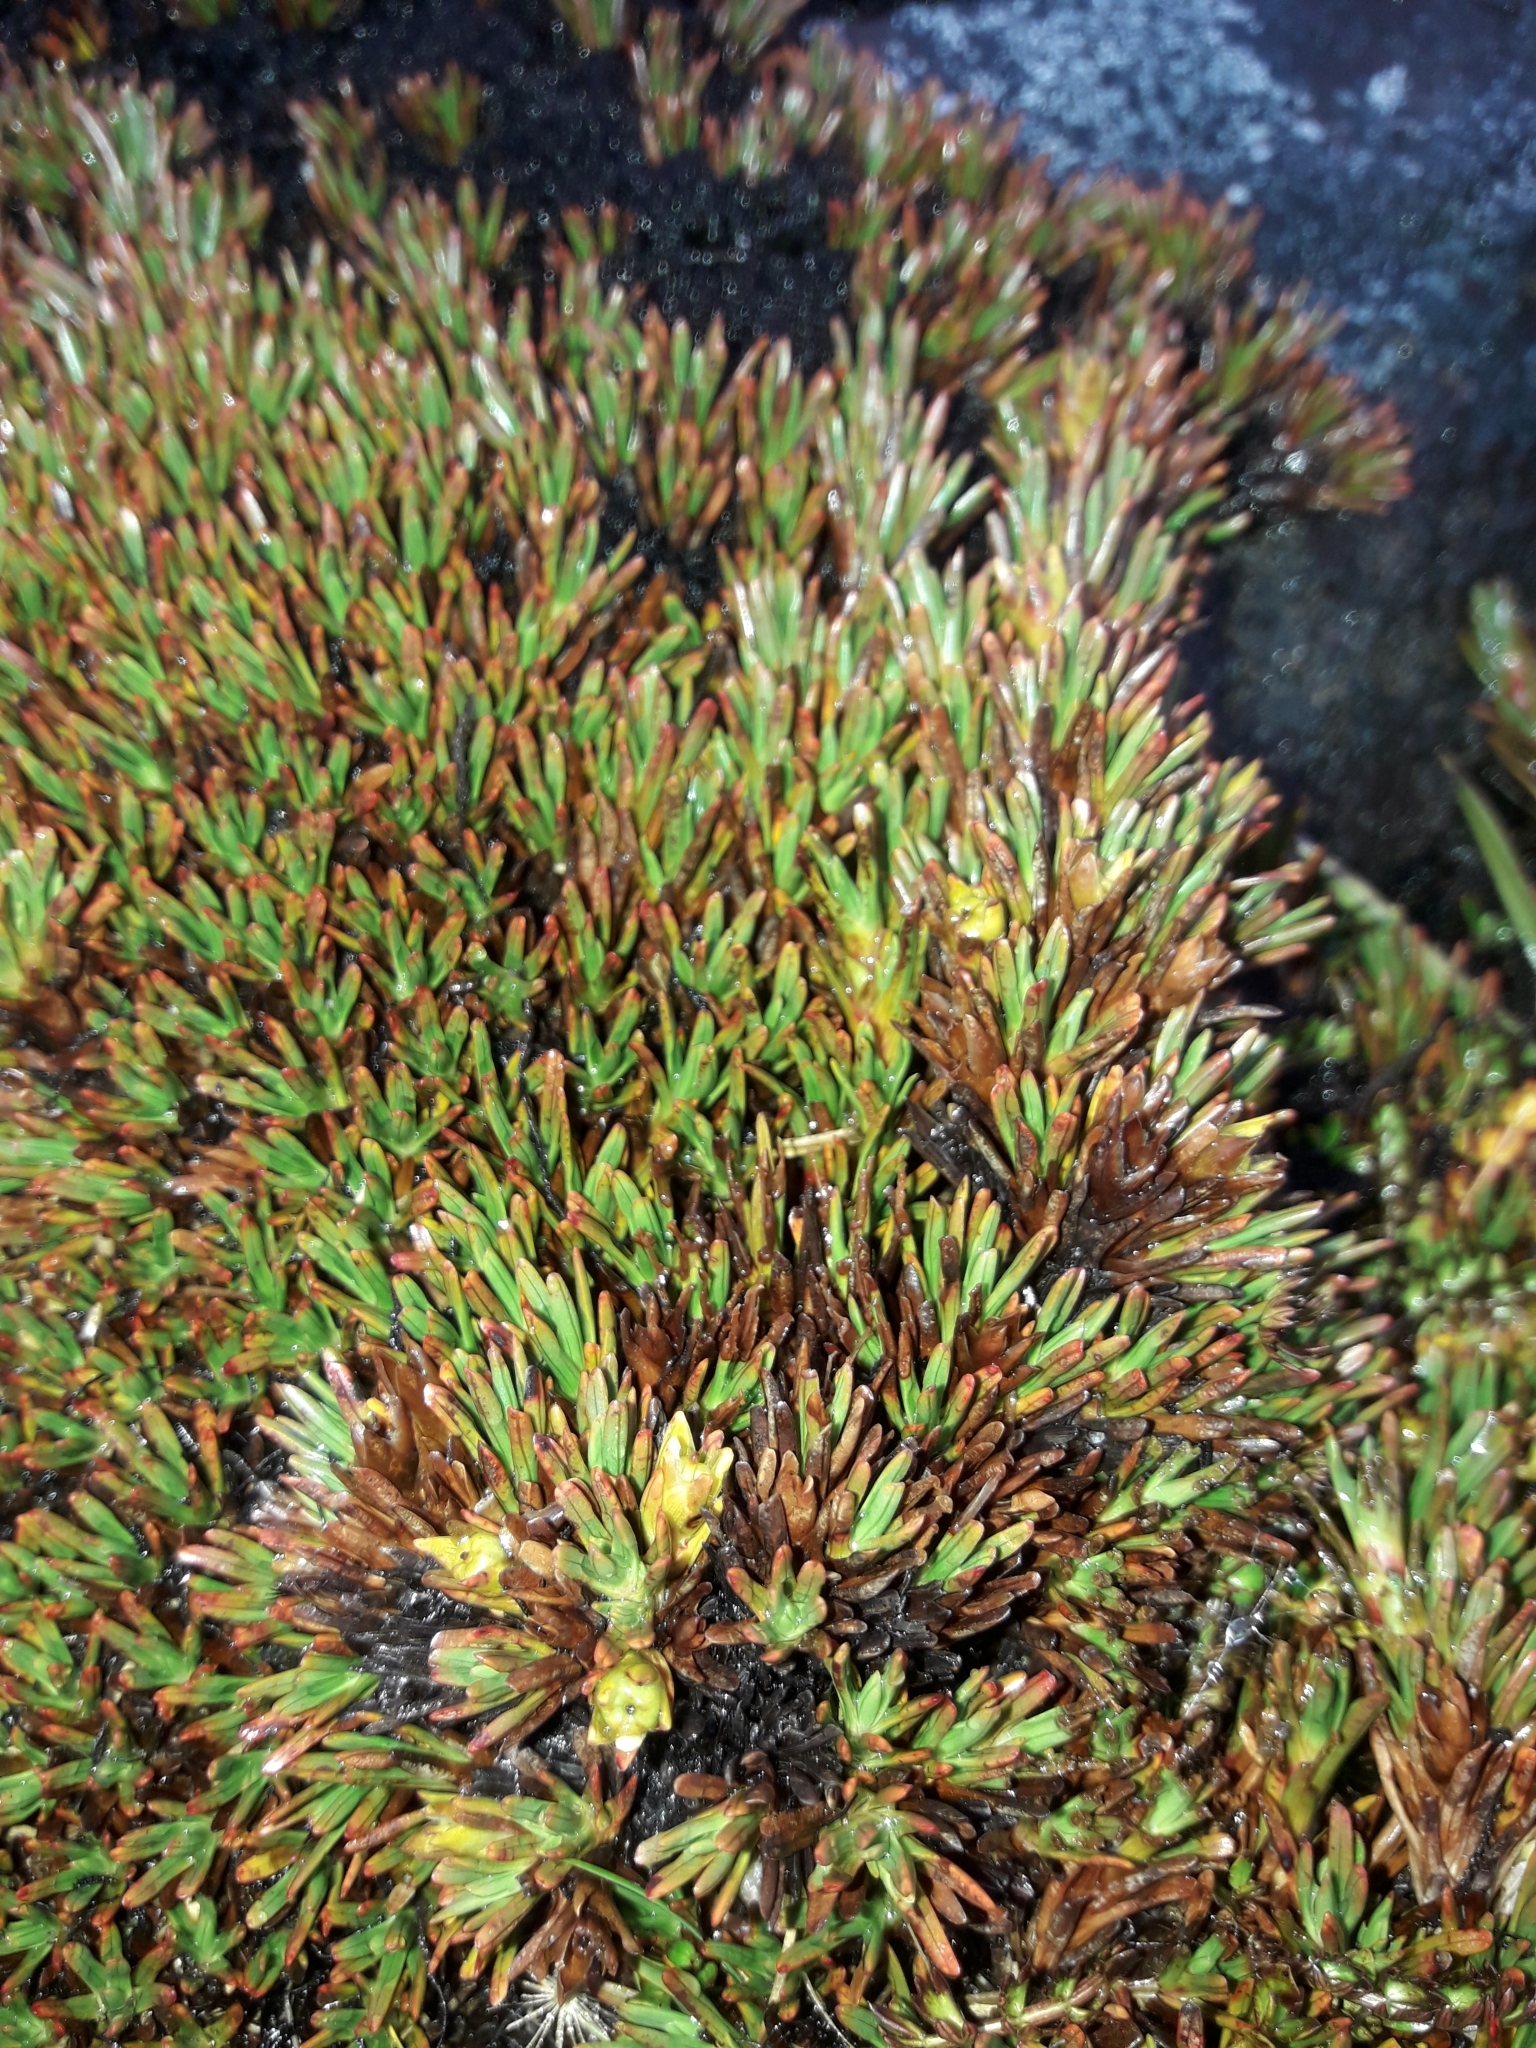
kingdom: Plantae
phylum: Tracheophyta
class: Magnoliopsida
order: Ericales
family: Ericaceae
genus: Dracophyllum
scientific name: Dracophyllum politum
